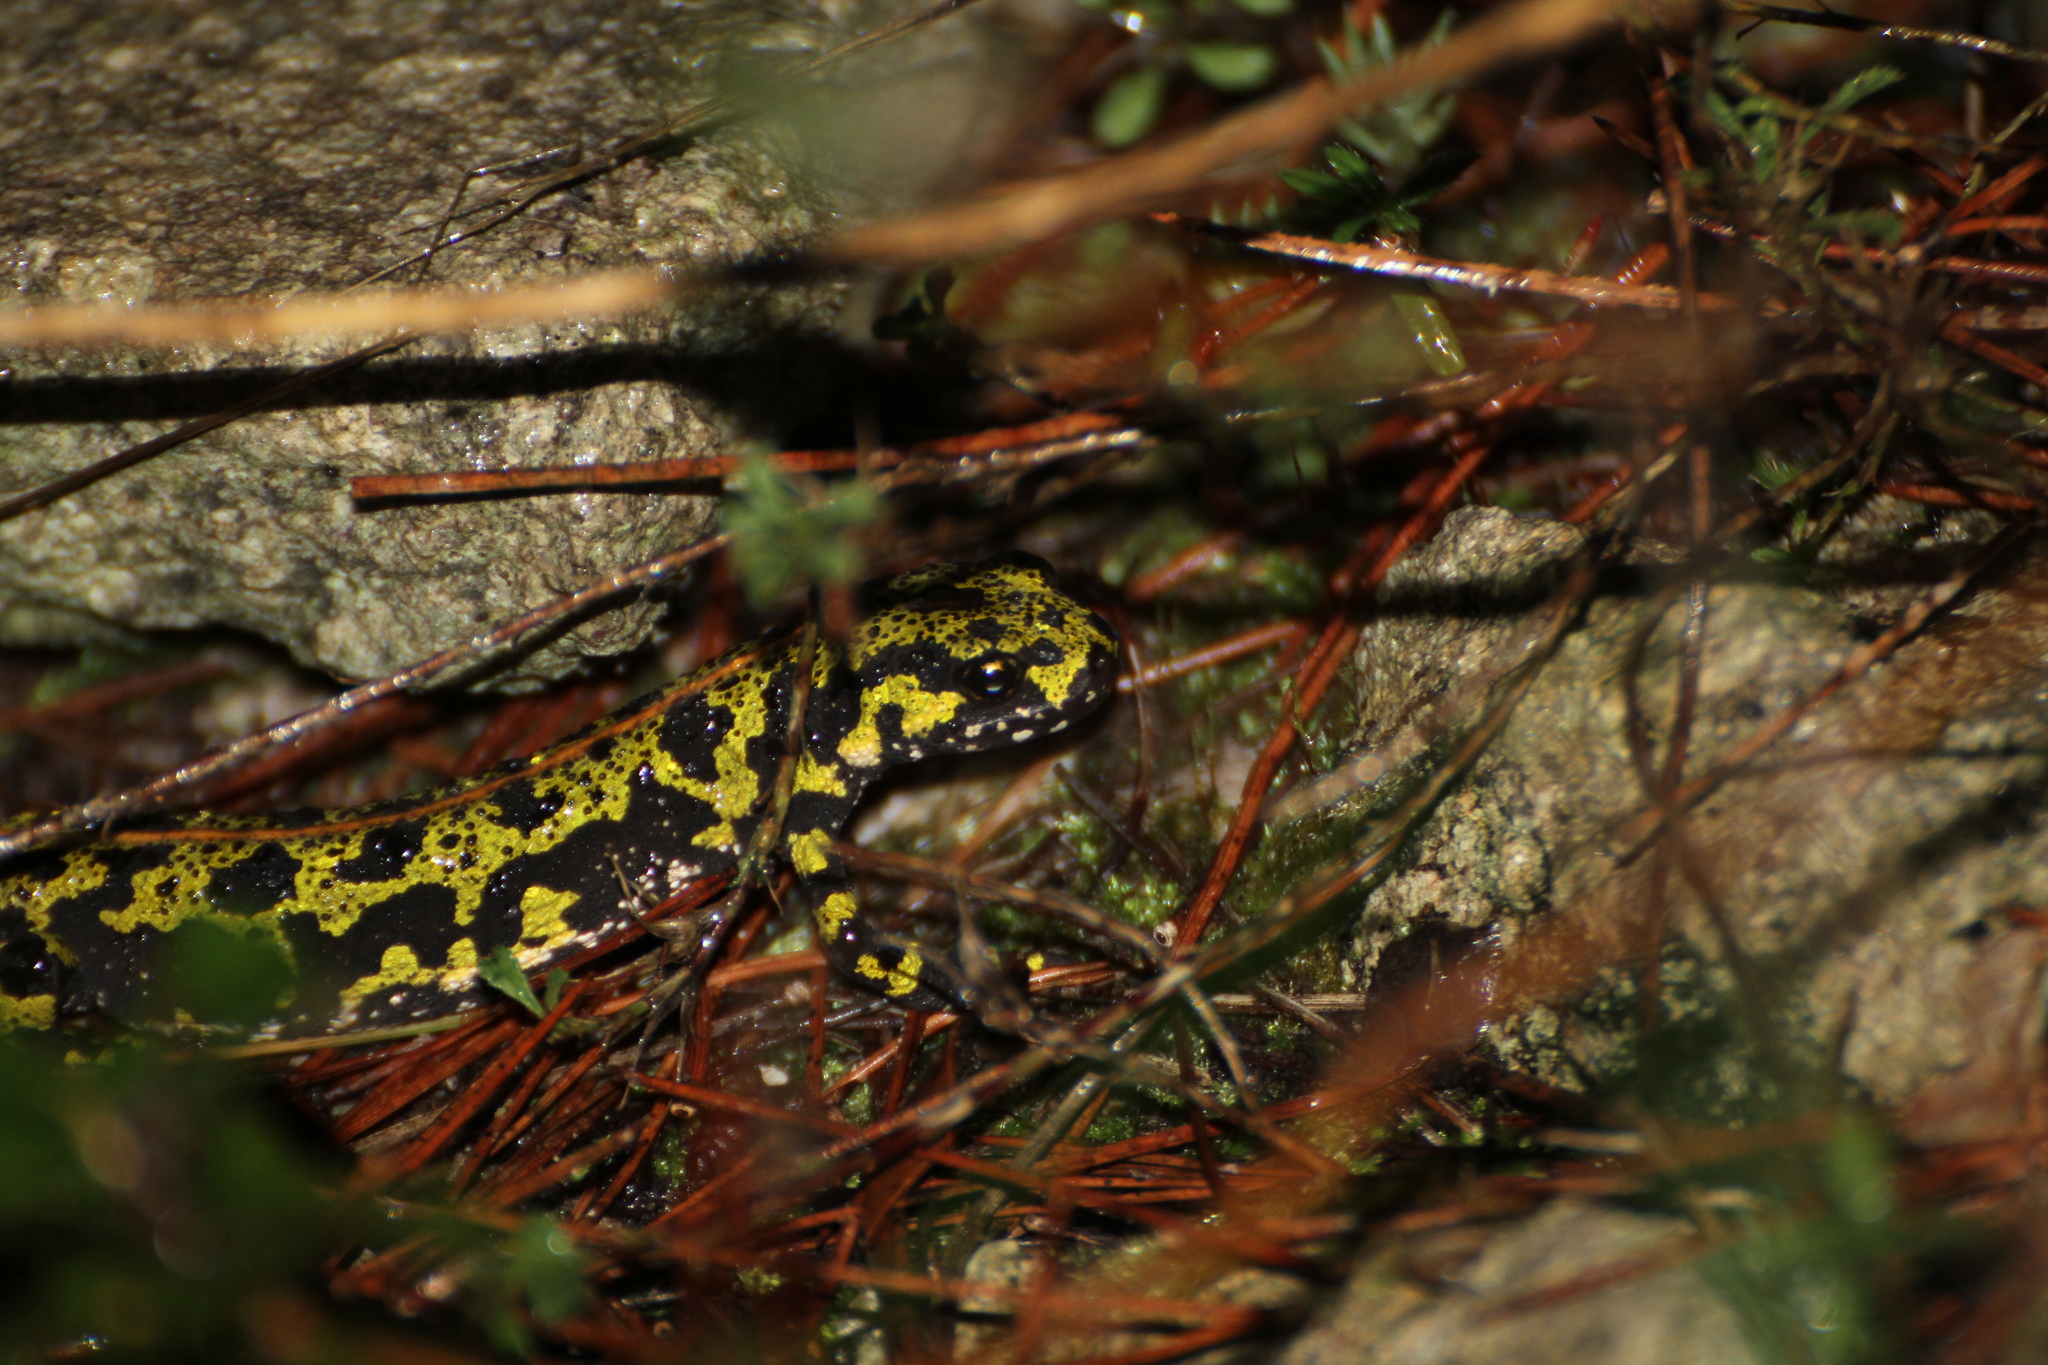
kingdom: Animalia
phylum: Chordata
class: Amphibia
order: Caudata
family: Salamandridae
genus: Triturus
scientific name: Triturus marmoratus
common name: Marbled newt
